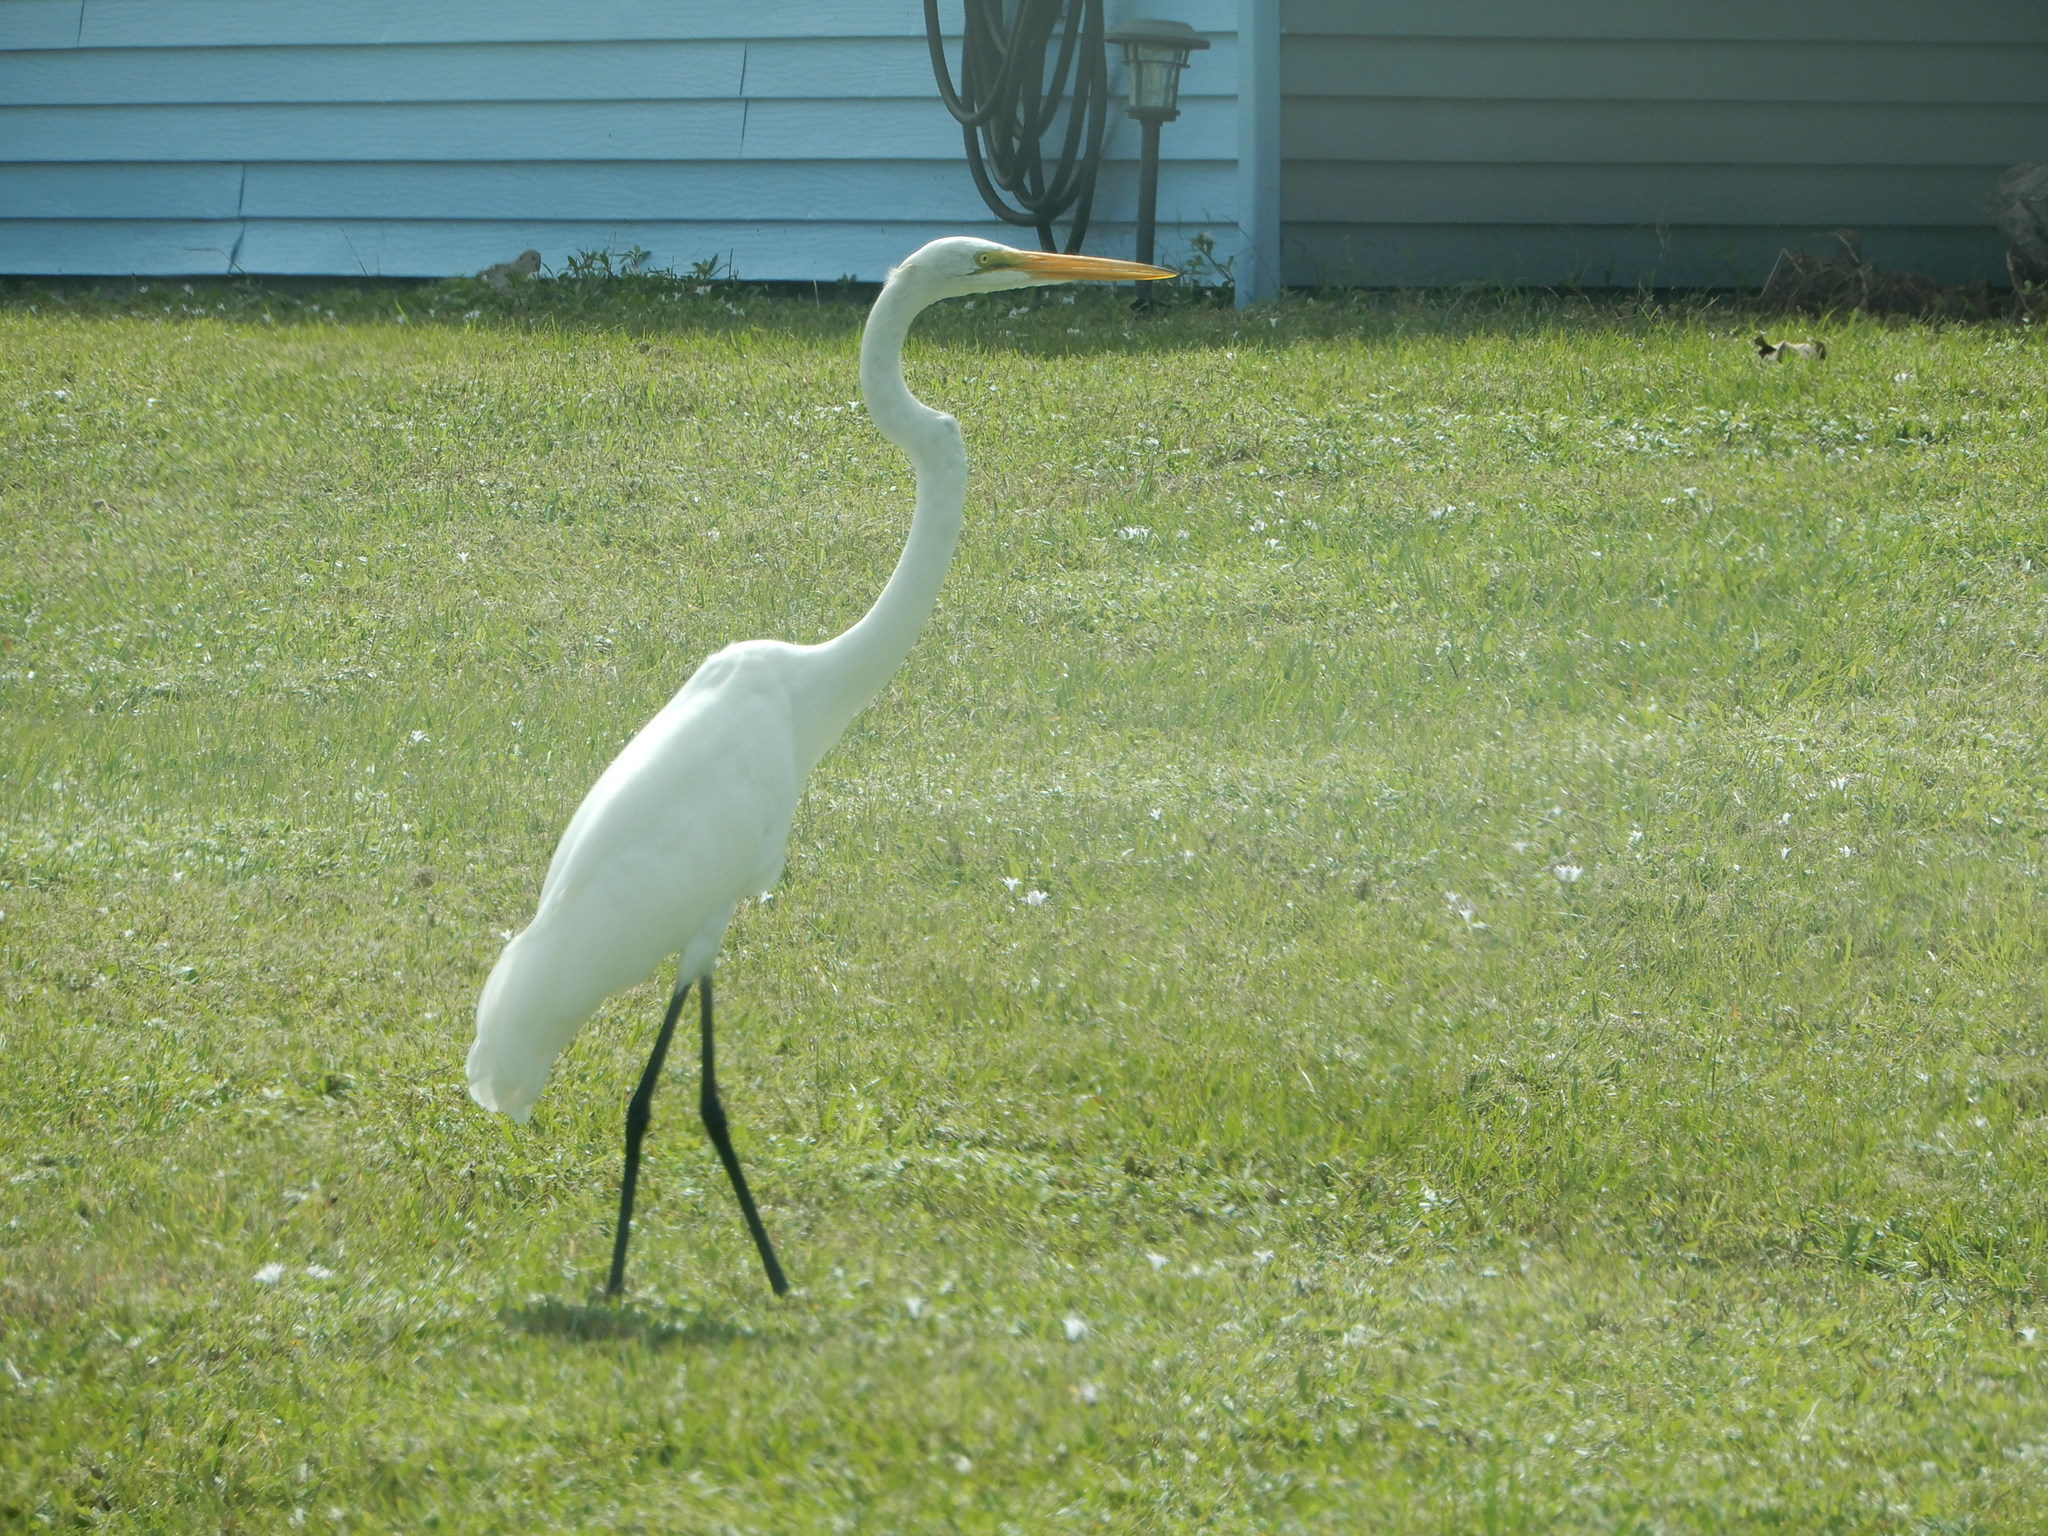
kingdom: Animalia
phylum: Chordata
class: Aves
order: Pelecaniformes
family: Ardeidae
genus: Ardea
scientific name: Ardea alba
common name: Great egret
